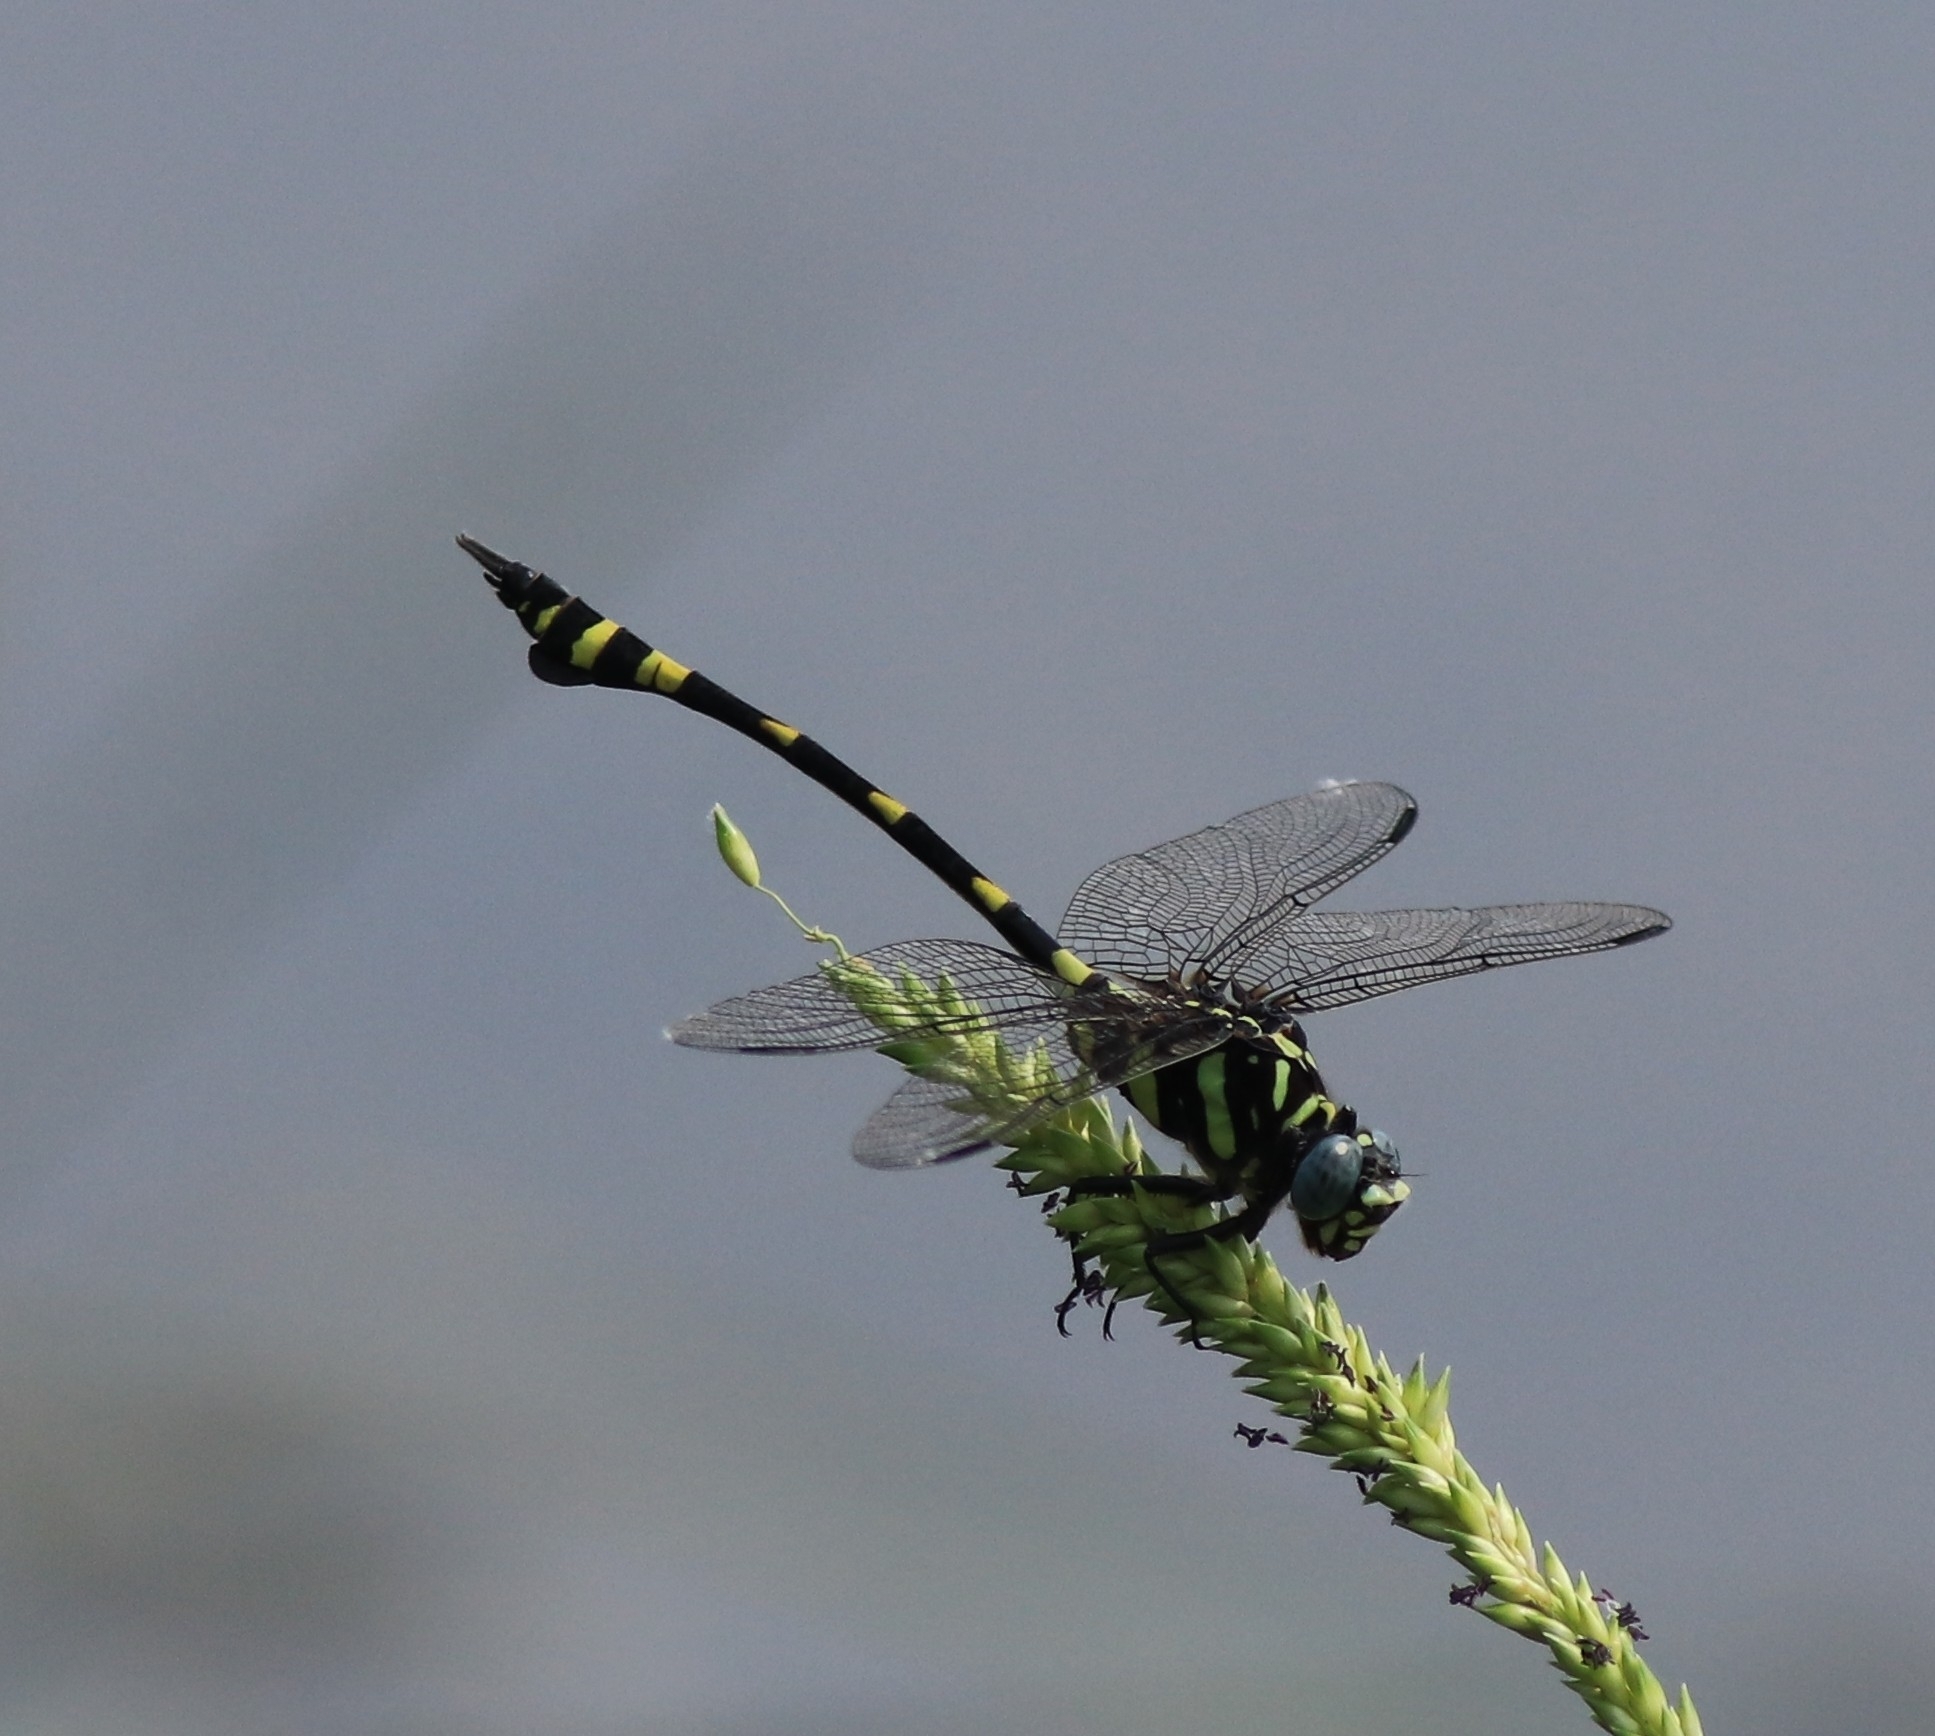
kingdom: Animalia
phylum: Arthropoda
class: Insecta
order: Odonata
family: Gomphidae
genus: Ictinogomphus
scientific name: Ictinogomphus rapax
